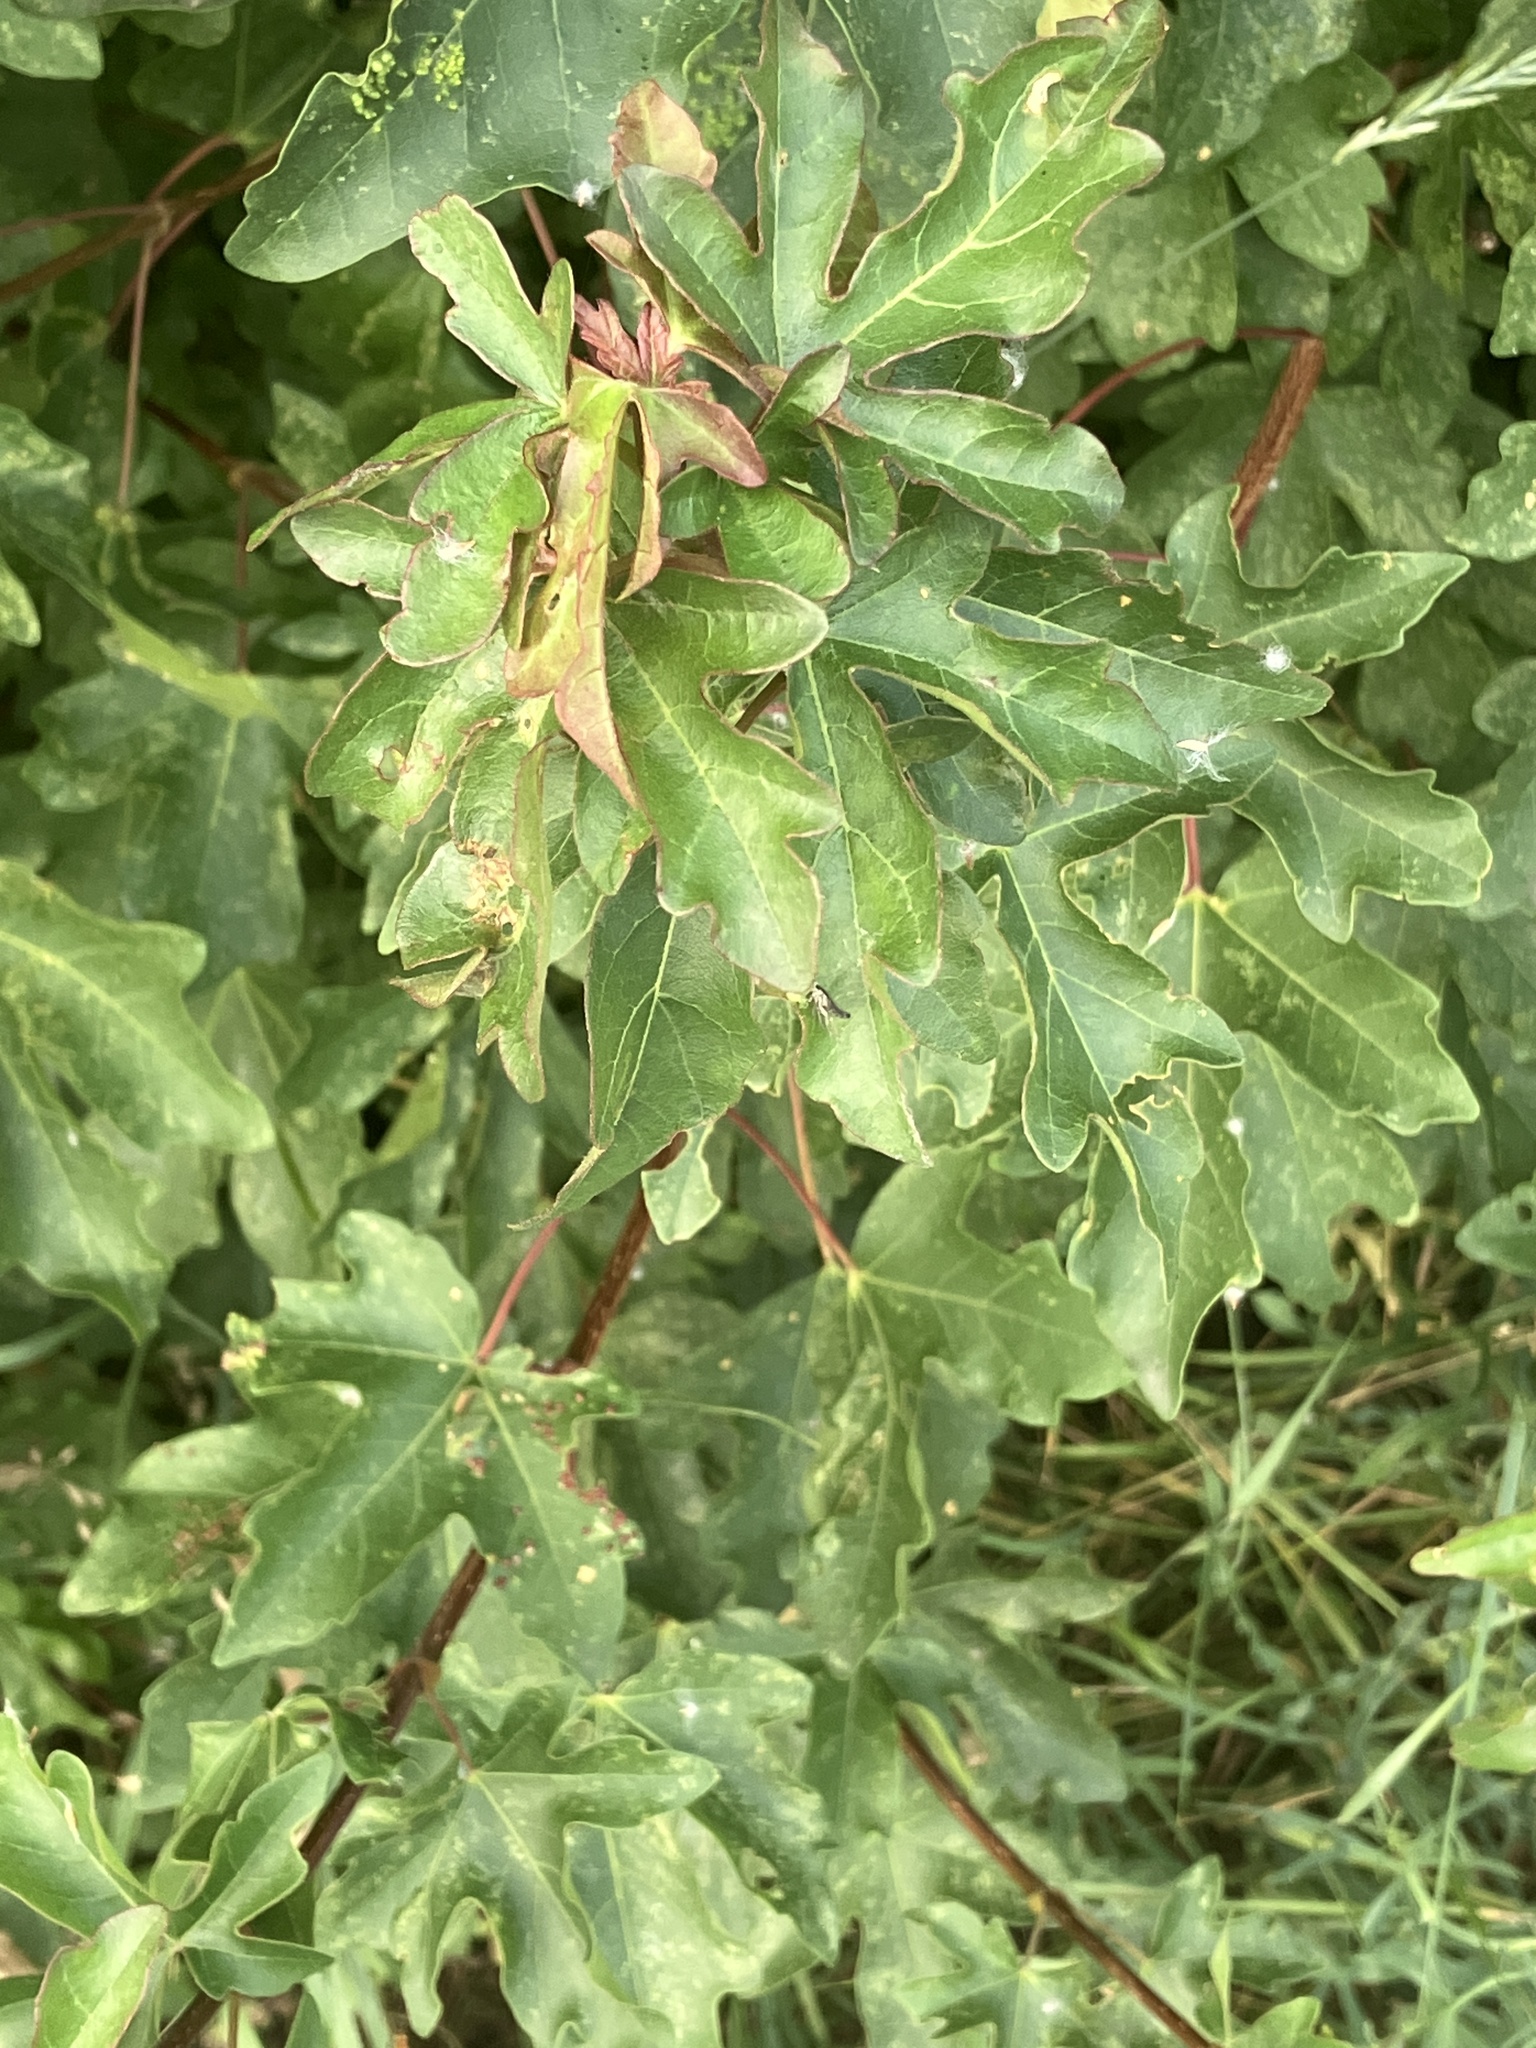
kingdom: Plantae
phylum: Tracheophyta
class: Magnoliopsida
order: Sapindales
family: Sapindaceae
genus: Acer
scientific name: Acer campestre
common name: Field maple
